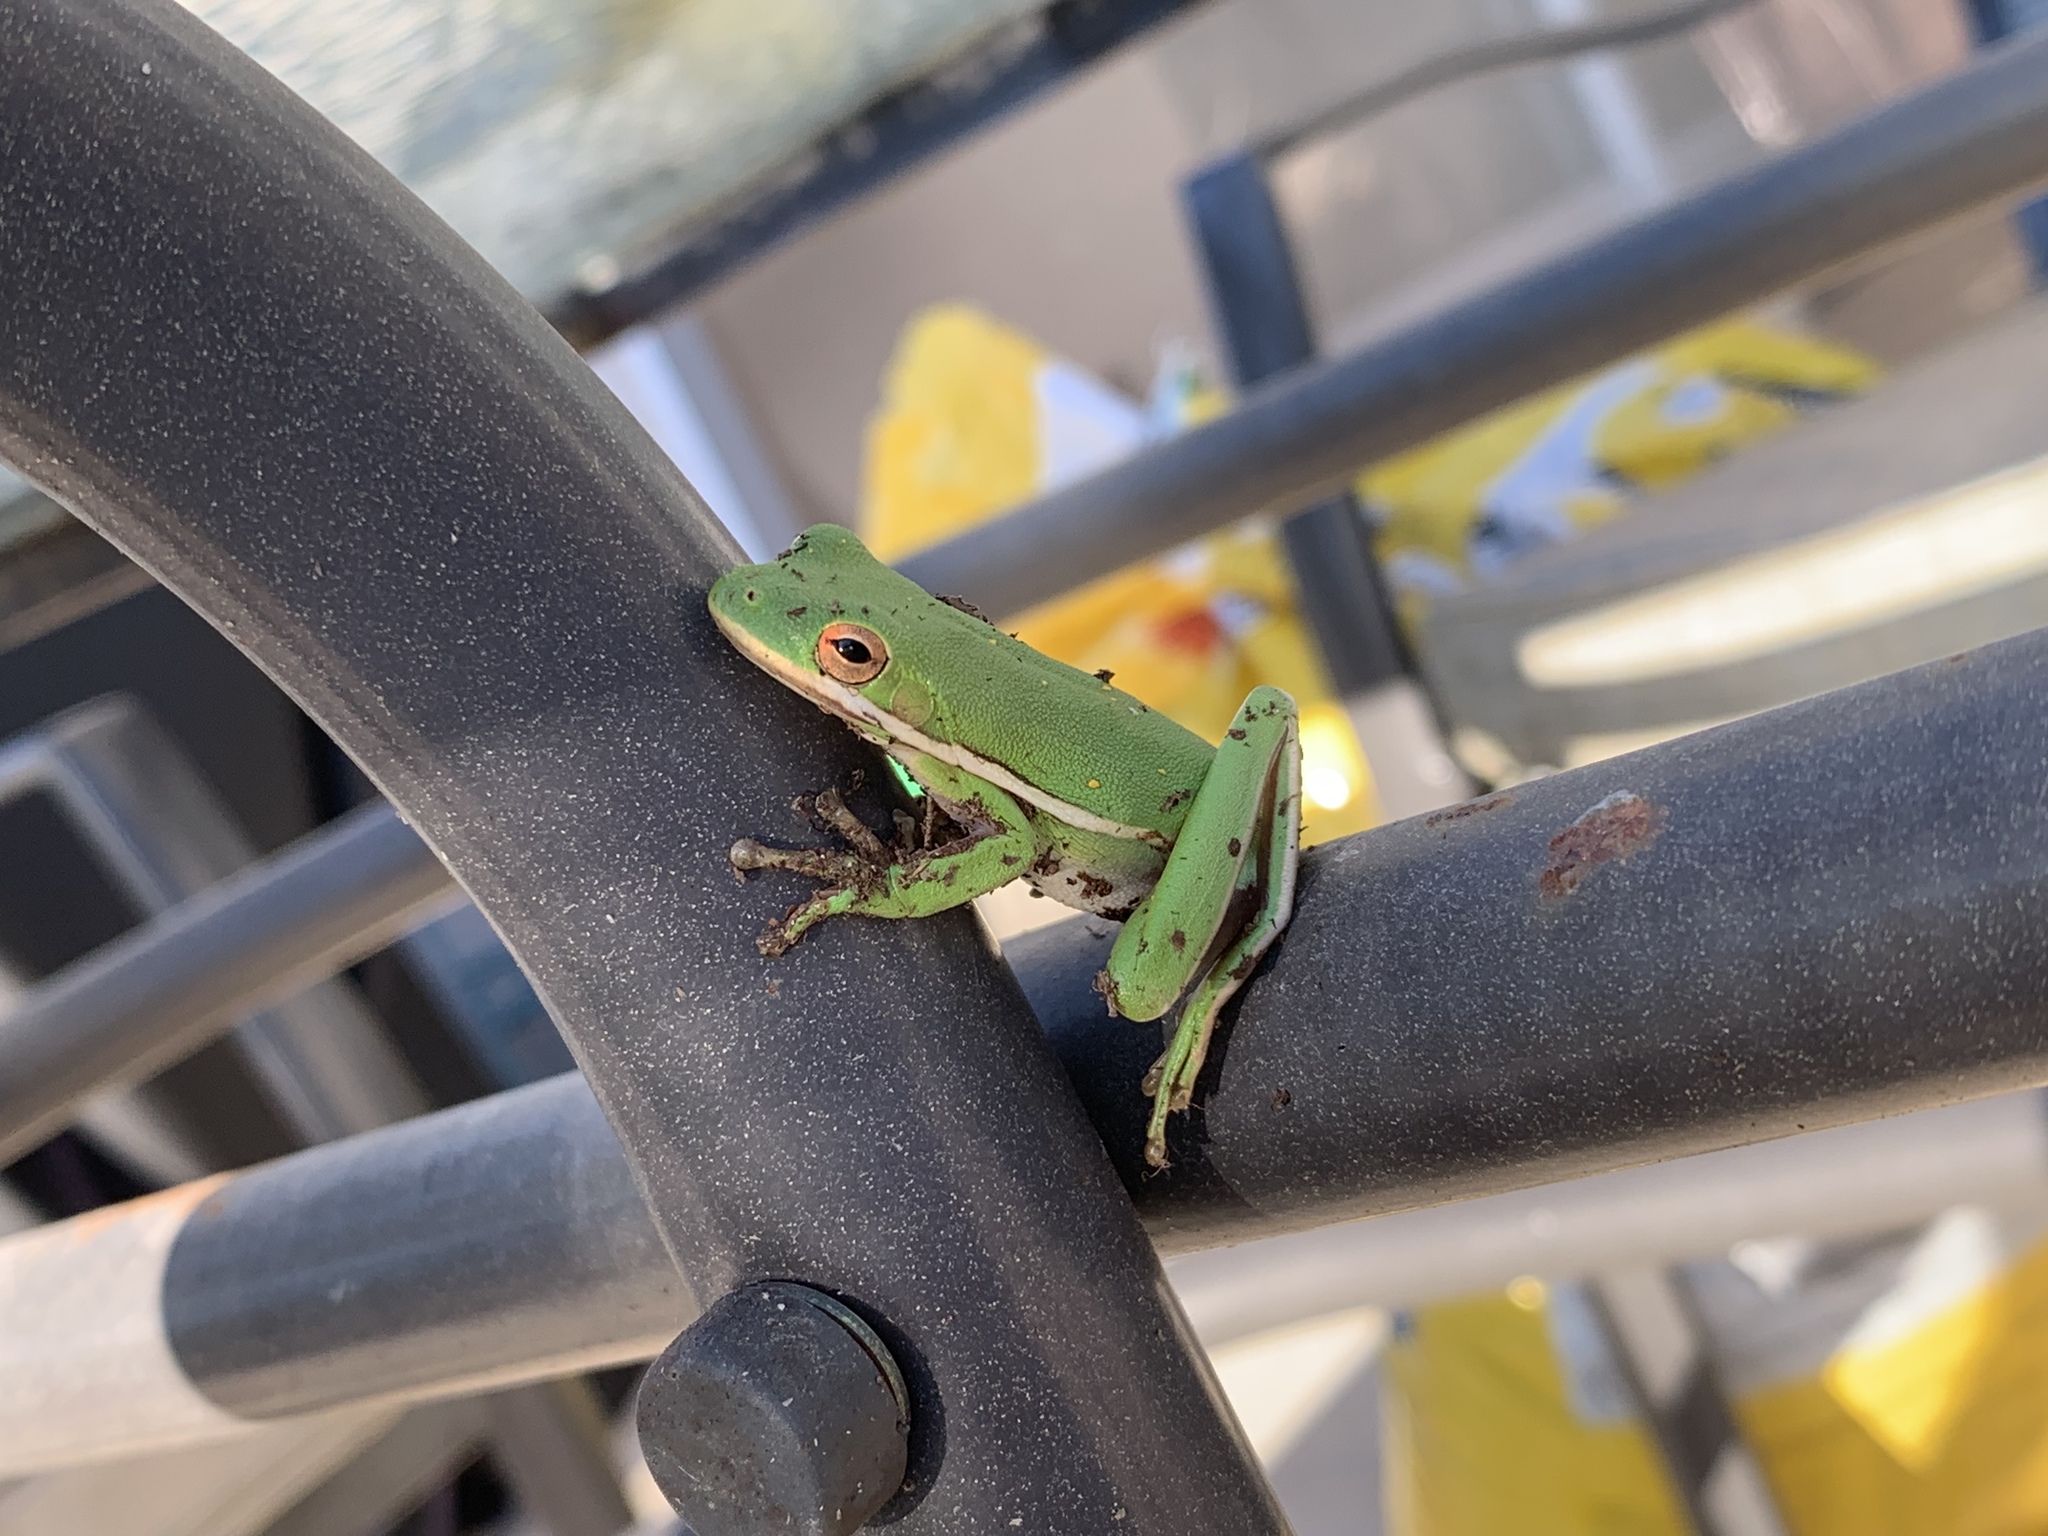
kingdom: Animalia
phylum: Chordata
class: Amphibia
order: Anura
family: Hylidae
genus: Dryophytes
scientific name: Dryophytes cinereus
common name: Green treefrog
